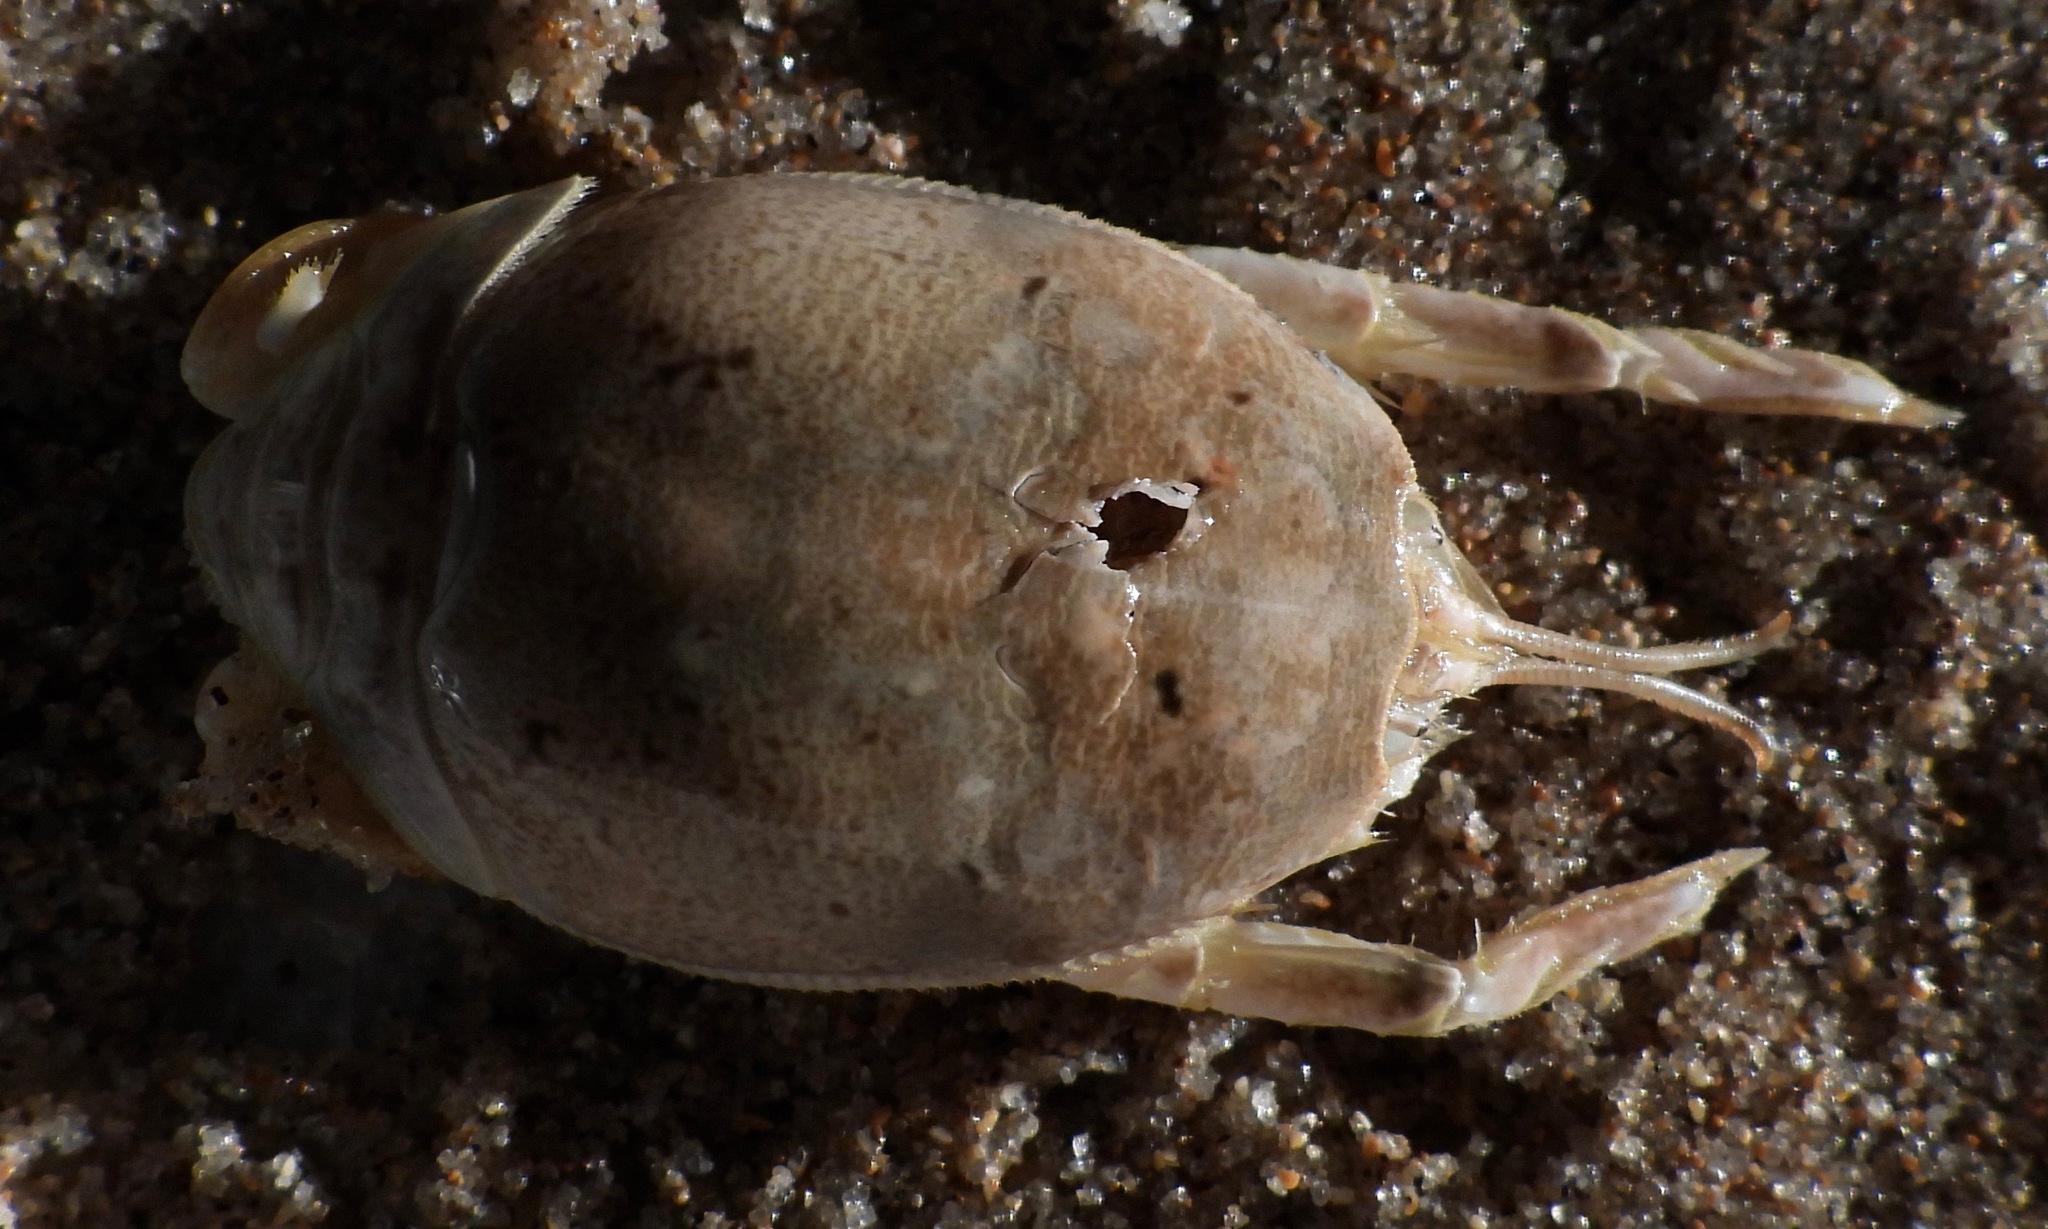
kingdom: Animalia
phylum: Arthropoda
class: Malacostraca
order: Decapoda
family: Hippidae
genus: Hippa
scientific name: Hippa testudinaria
